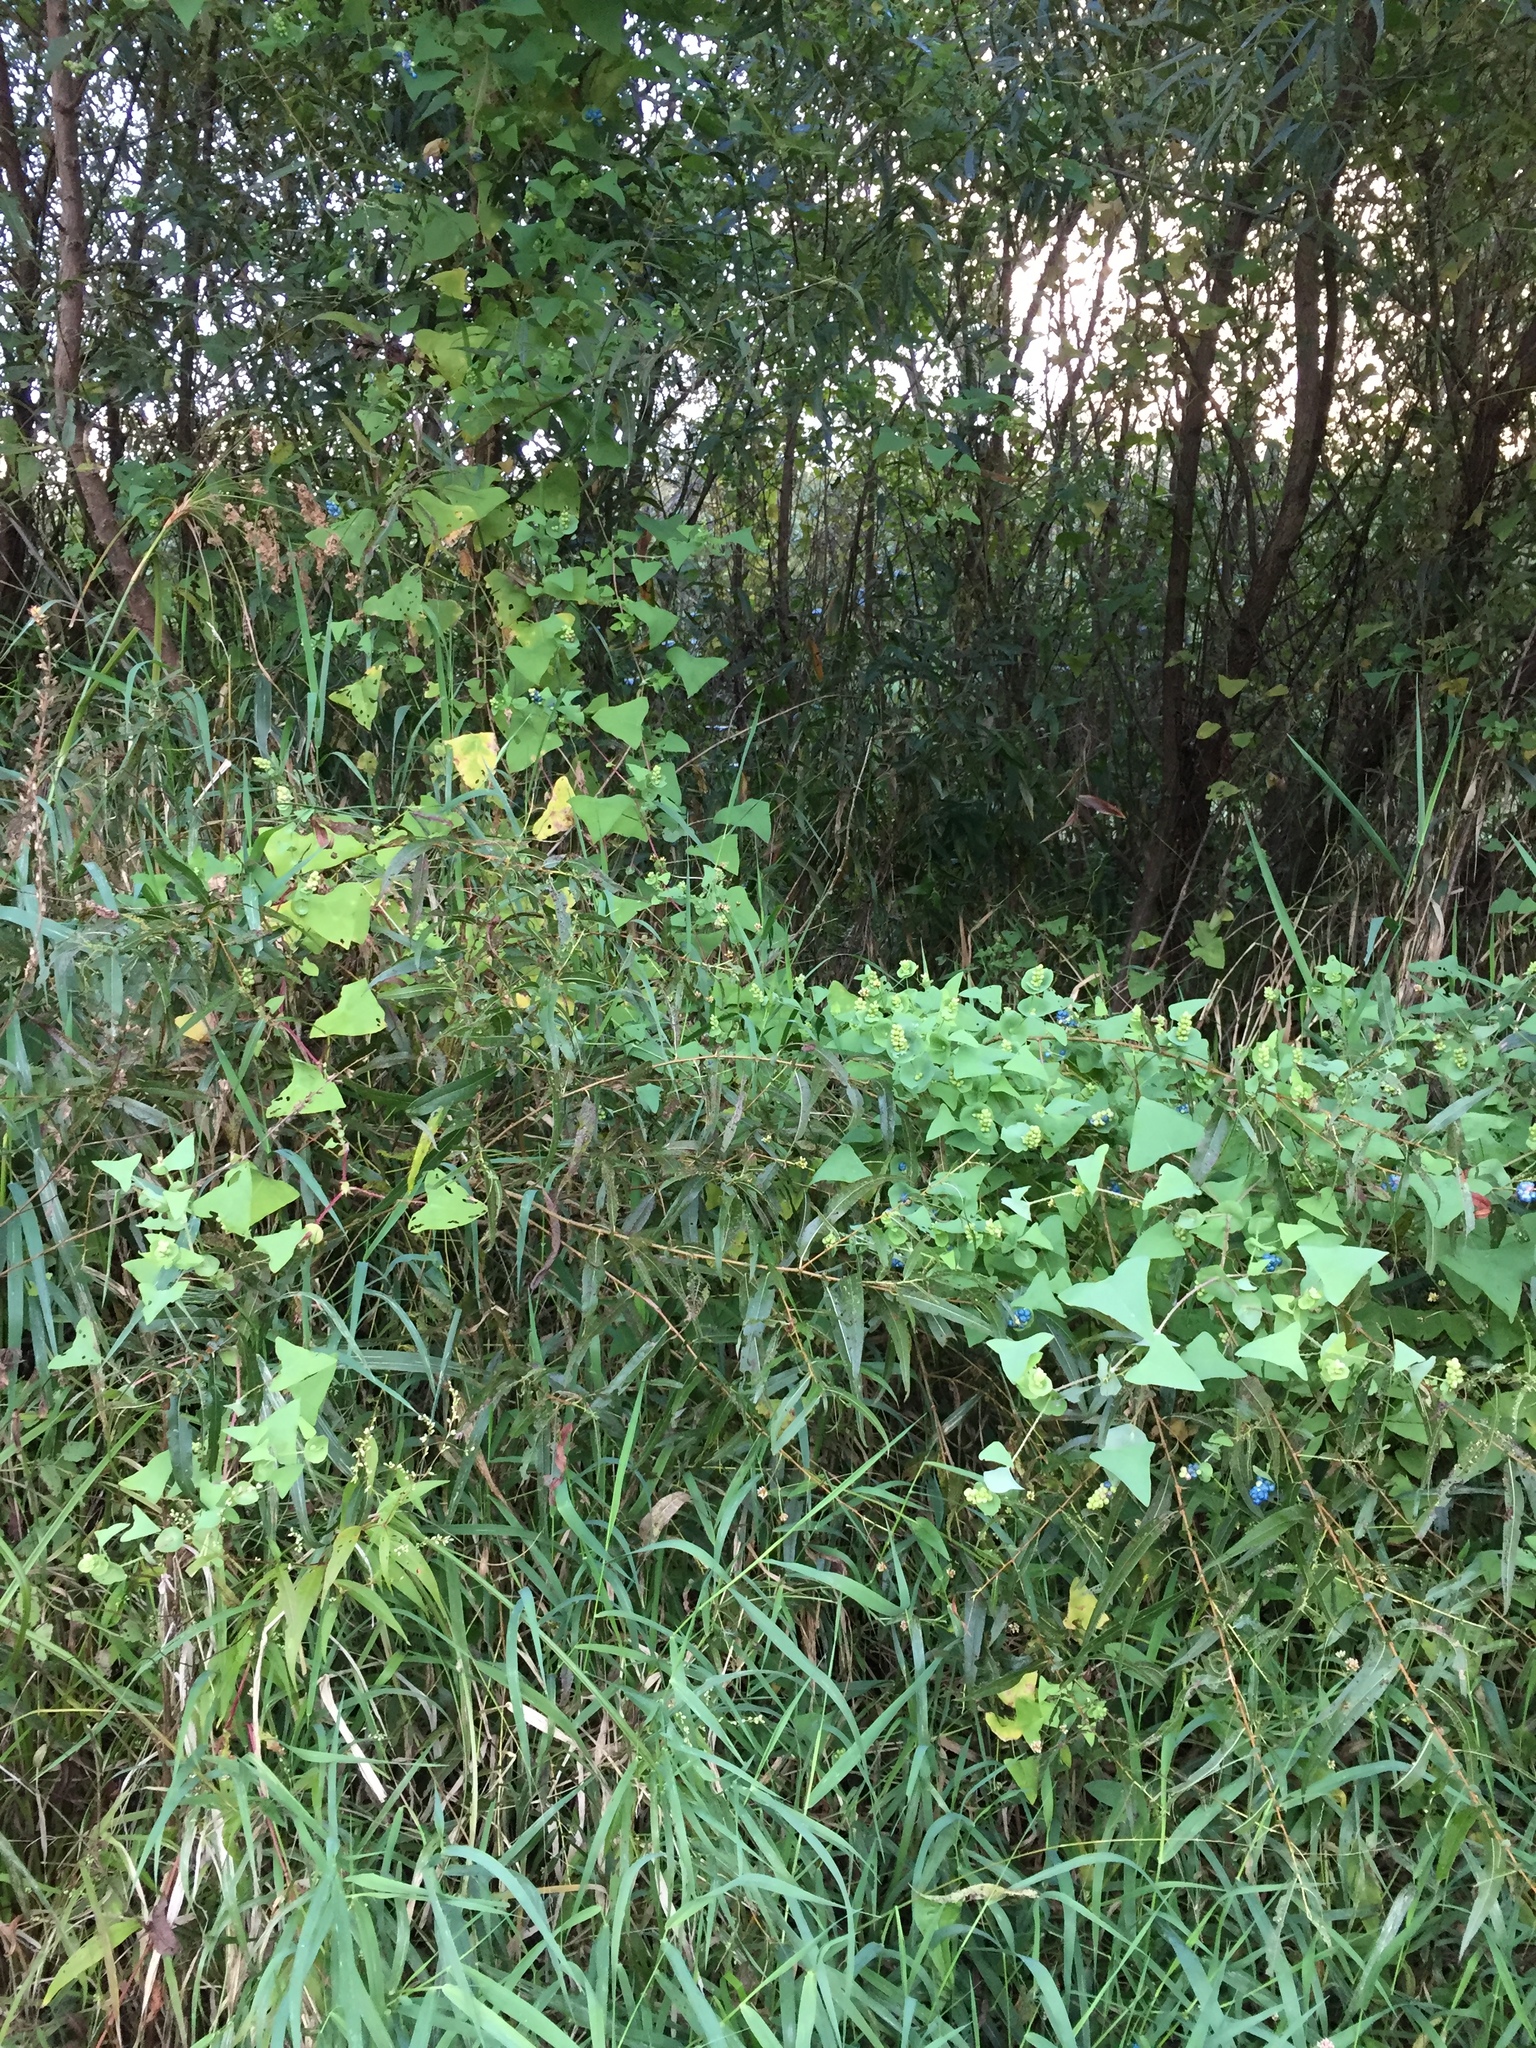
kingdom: Plantae
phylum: Tracheophyta
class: Magnoliopsida
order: Caryophyllales
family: Polygonaceae
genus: Persicaria
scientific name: Persicaria perfoliata
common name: Asiatic tearthumb
